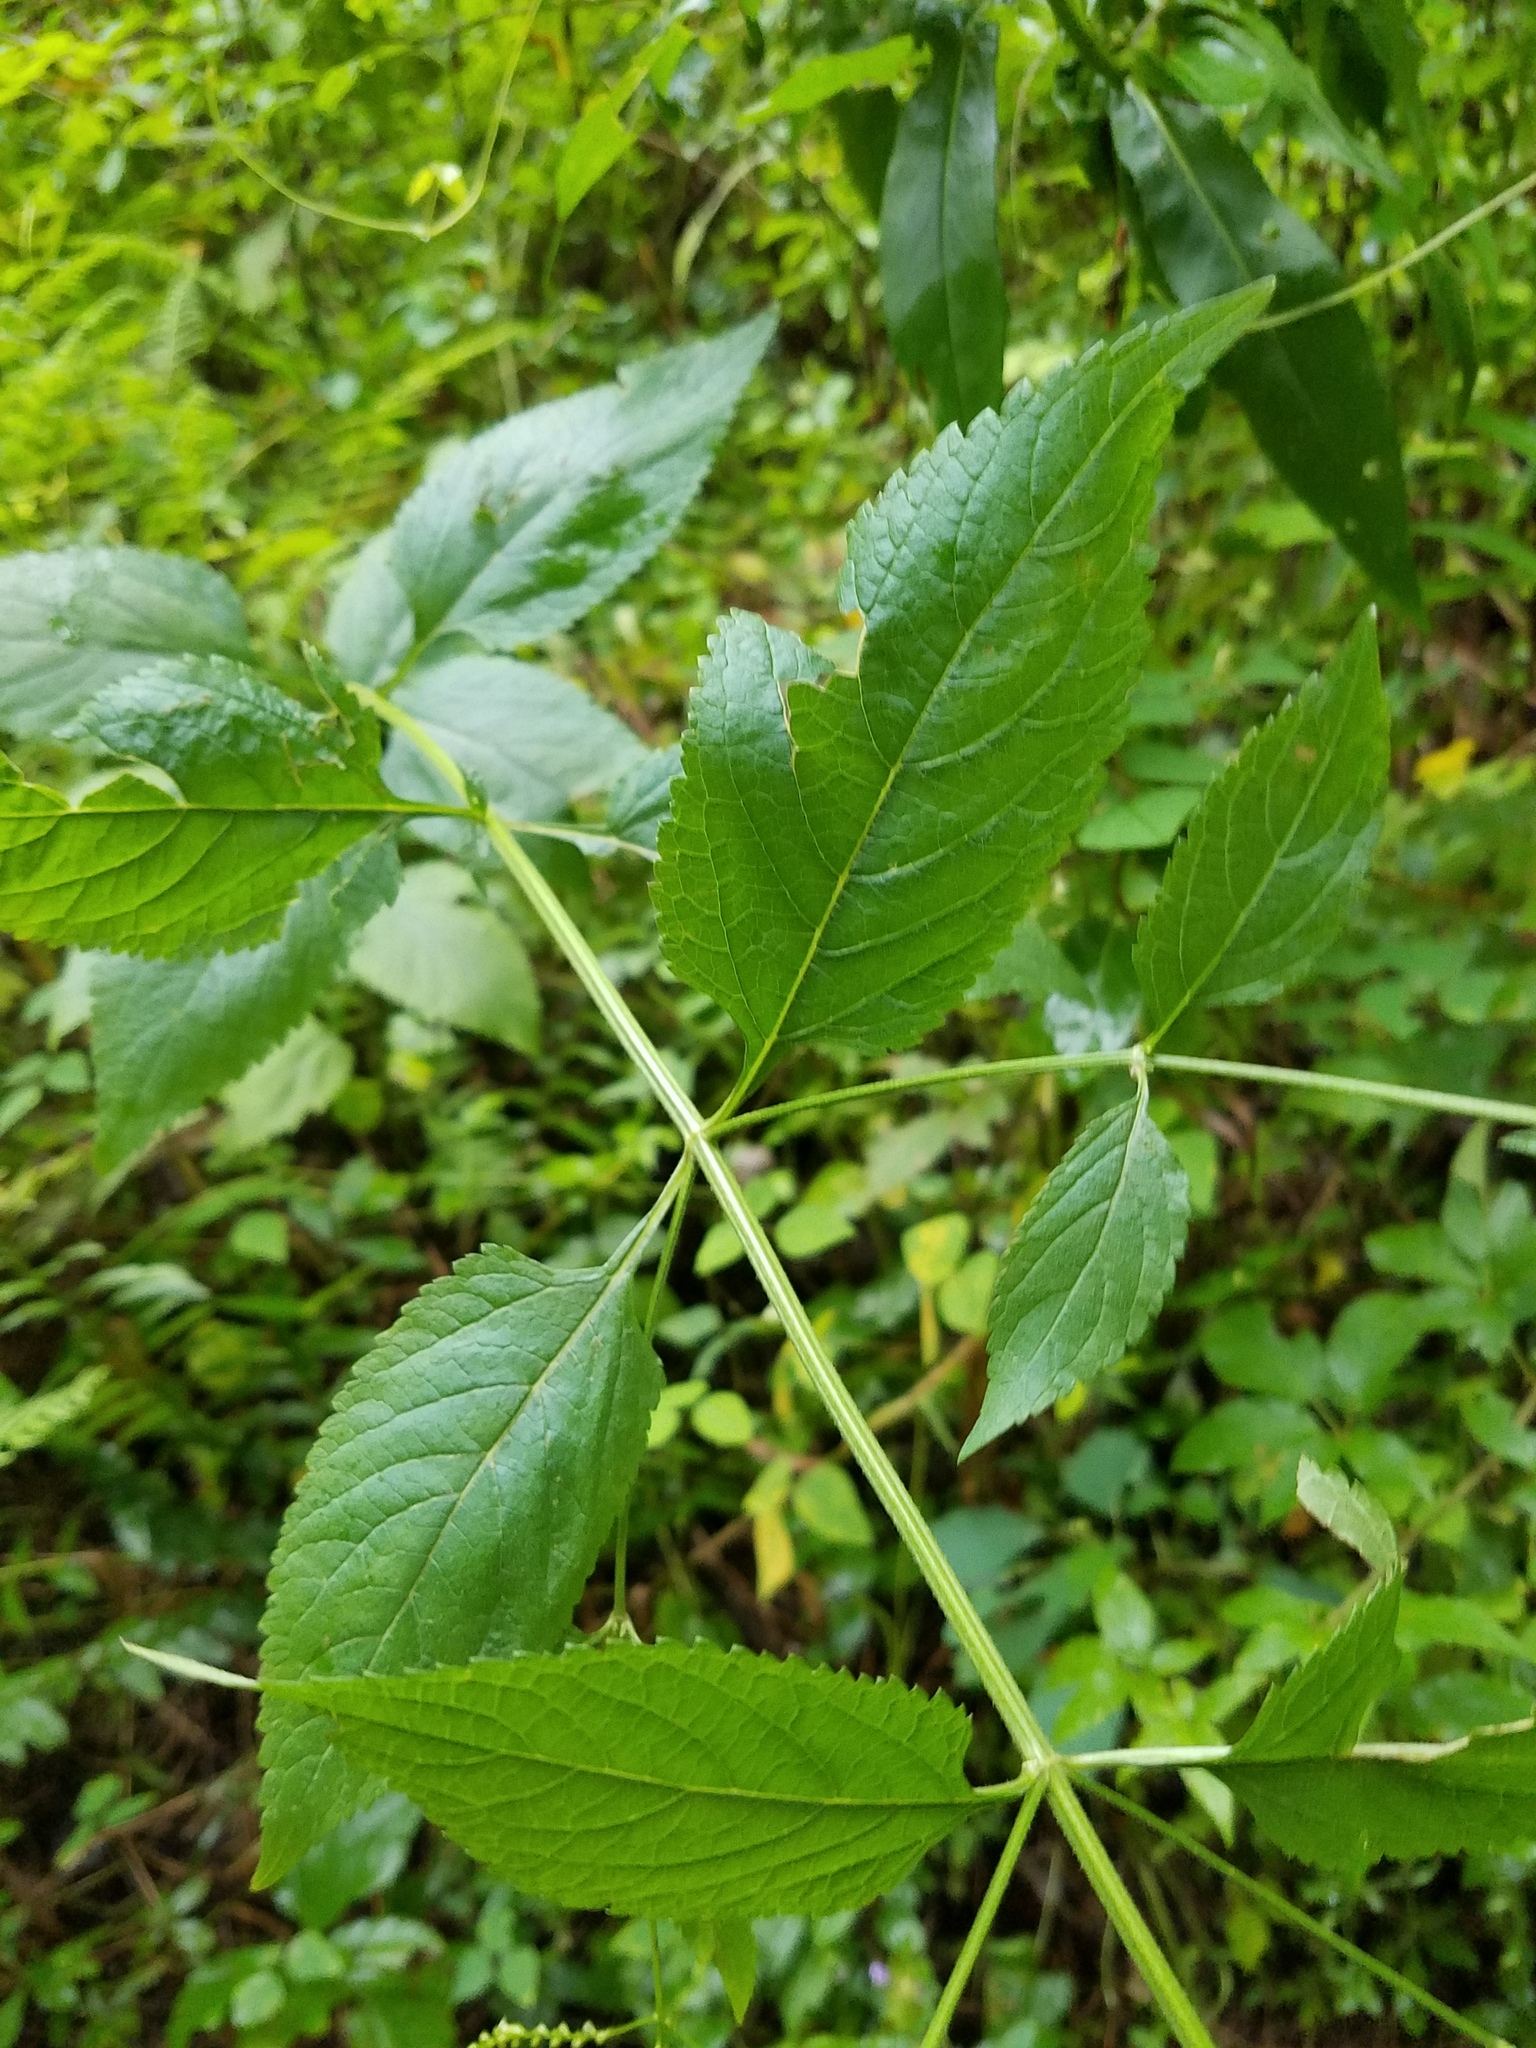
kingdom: Plantae
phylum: Tracheophyta
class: Magnoliopsida
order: Lamiales
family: Verbenaceae
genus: Verbena
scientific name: Verbena urticifolia
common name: Nettle-leaved vervain
